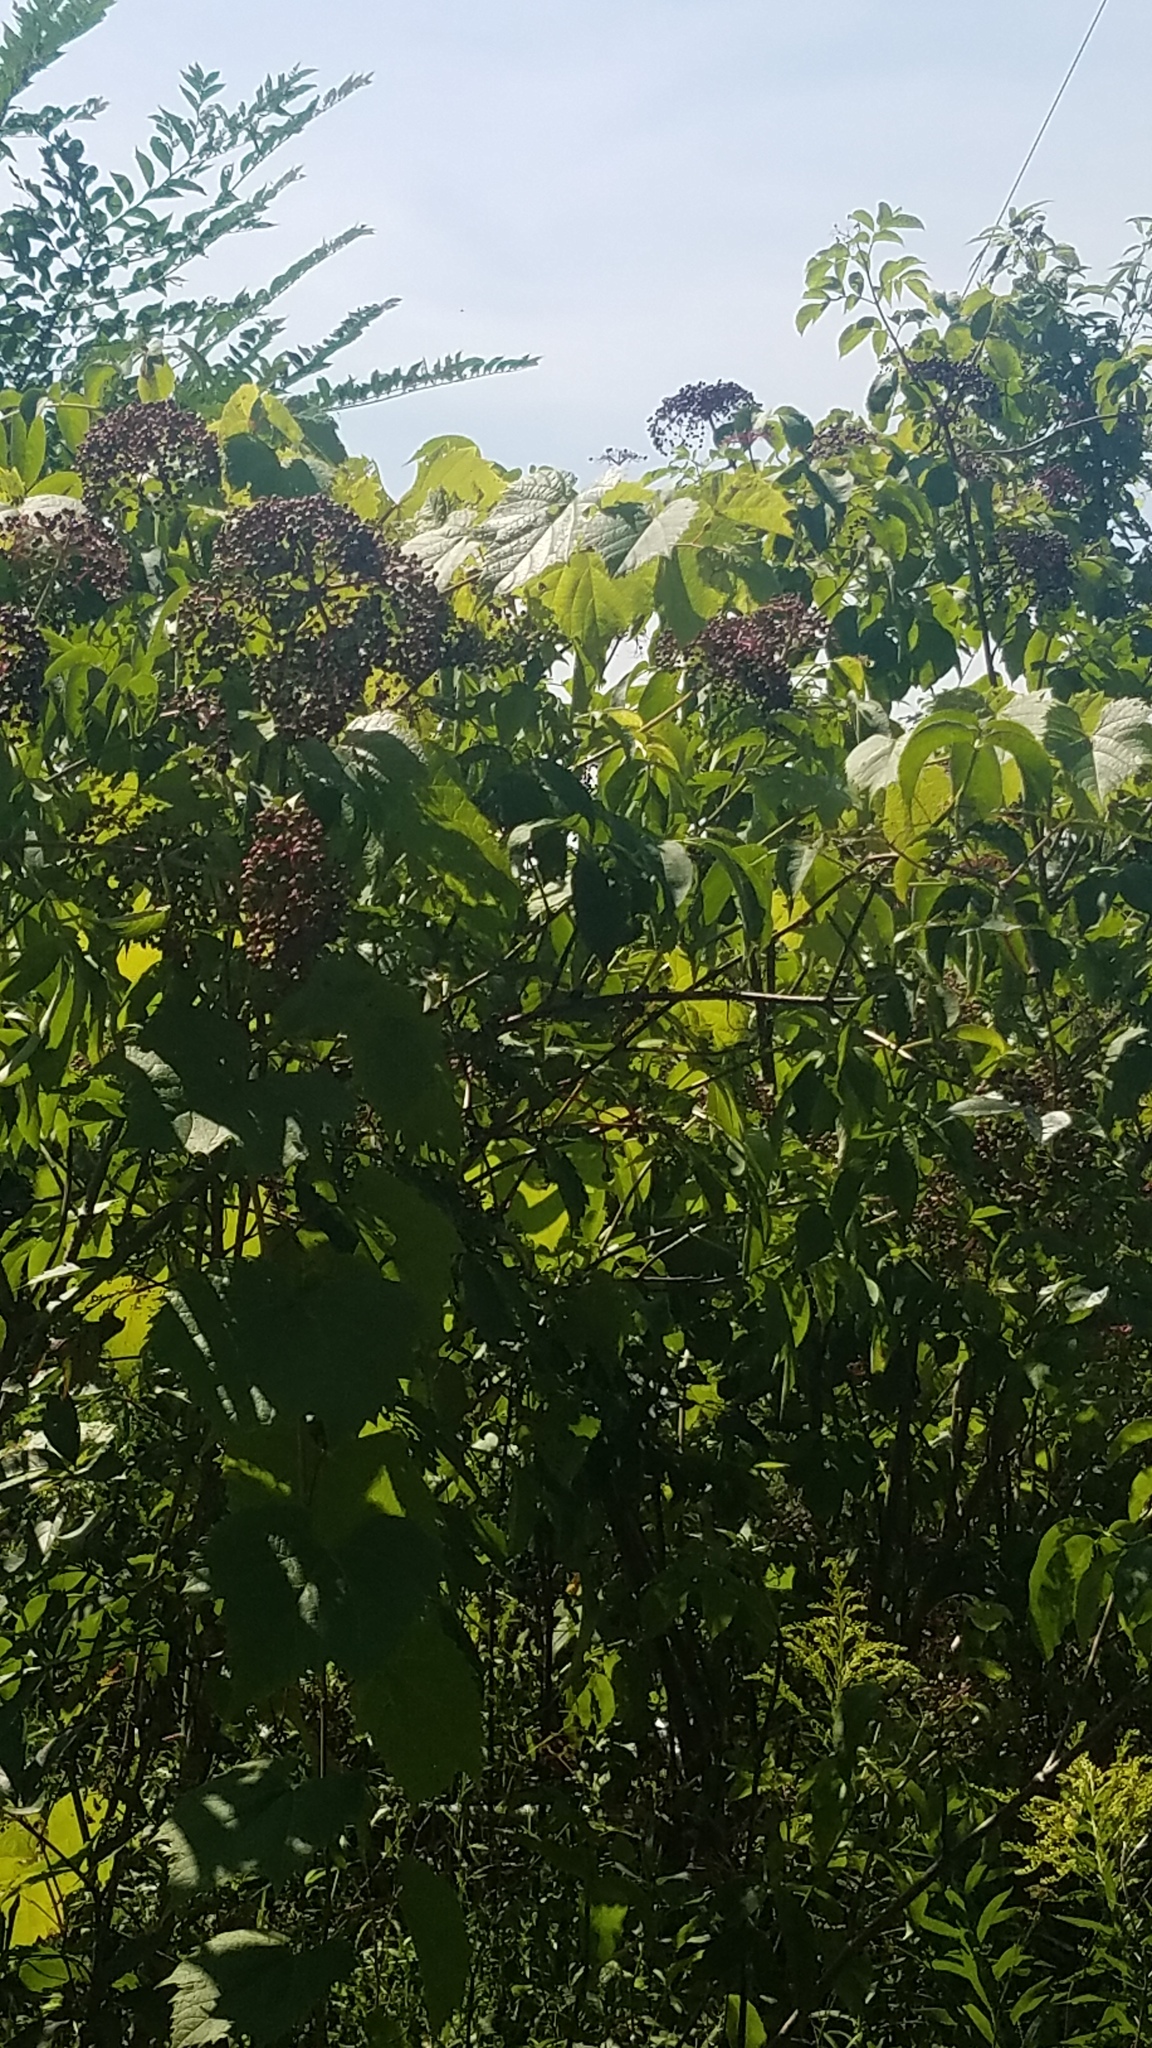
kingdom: Plantae
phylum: Tracheophyta
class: Magnoliopsida
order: Dipsacales
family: Viburnaceae
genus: Sambucus
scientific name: Sambucus canadensis
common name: American elder
